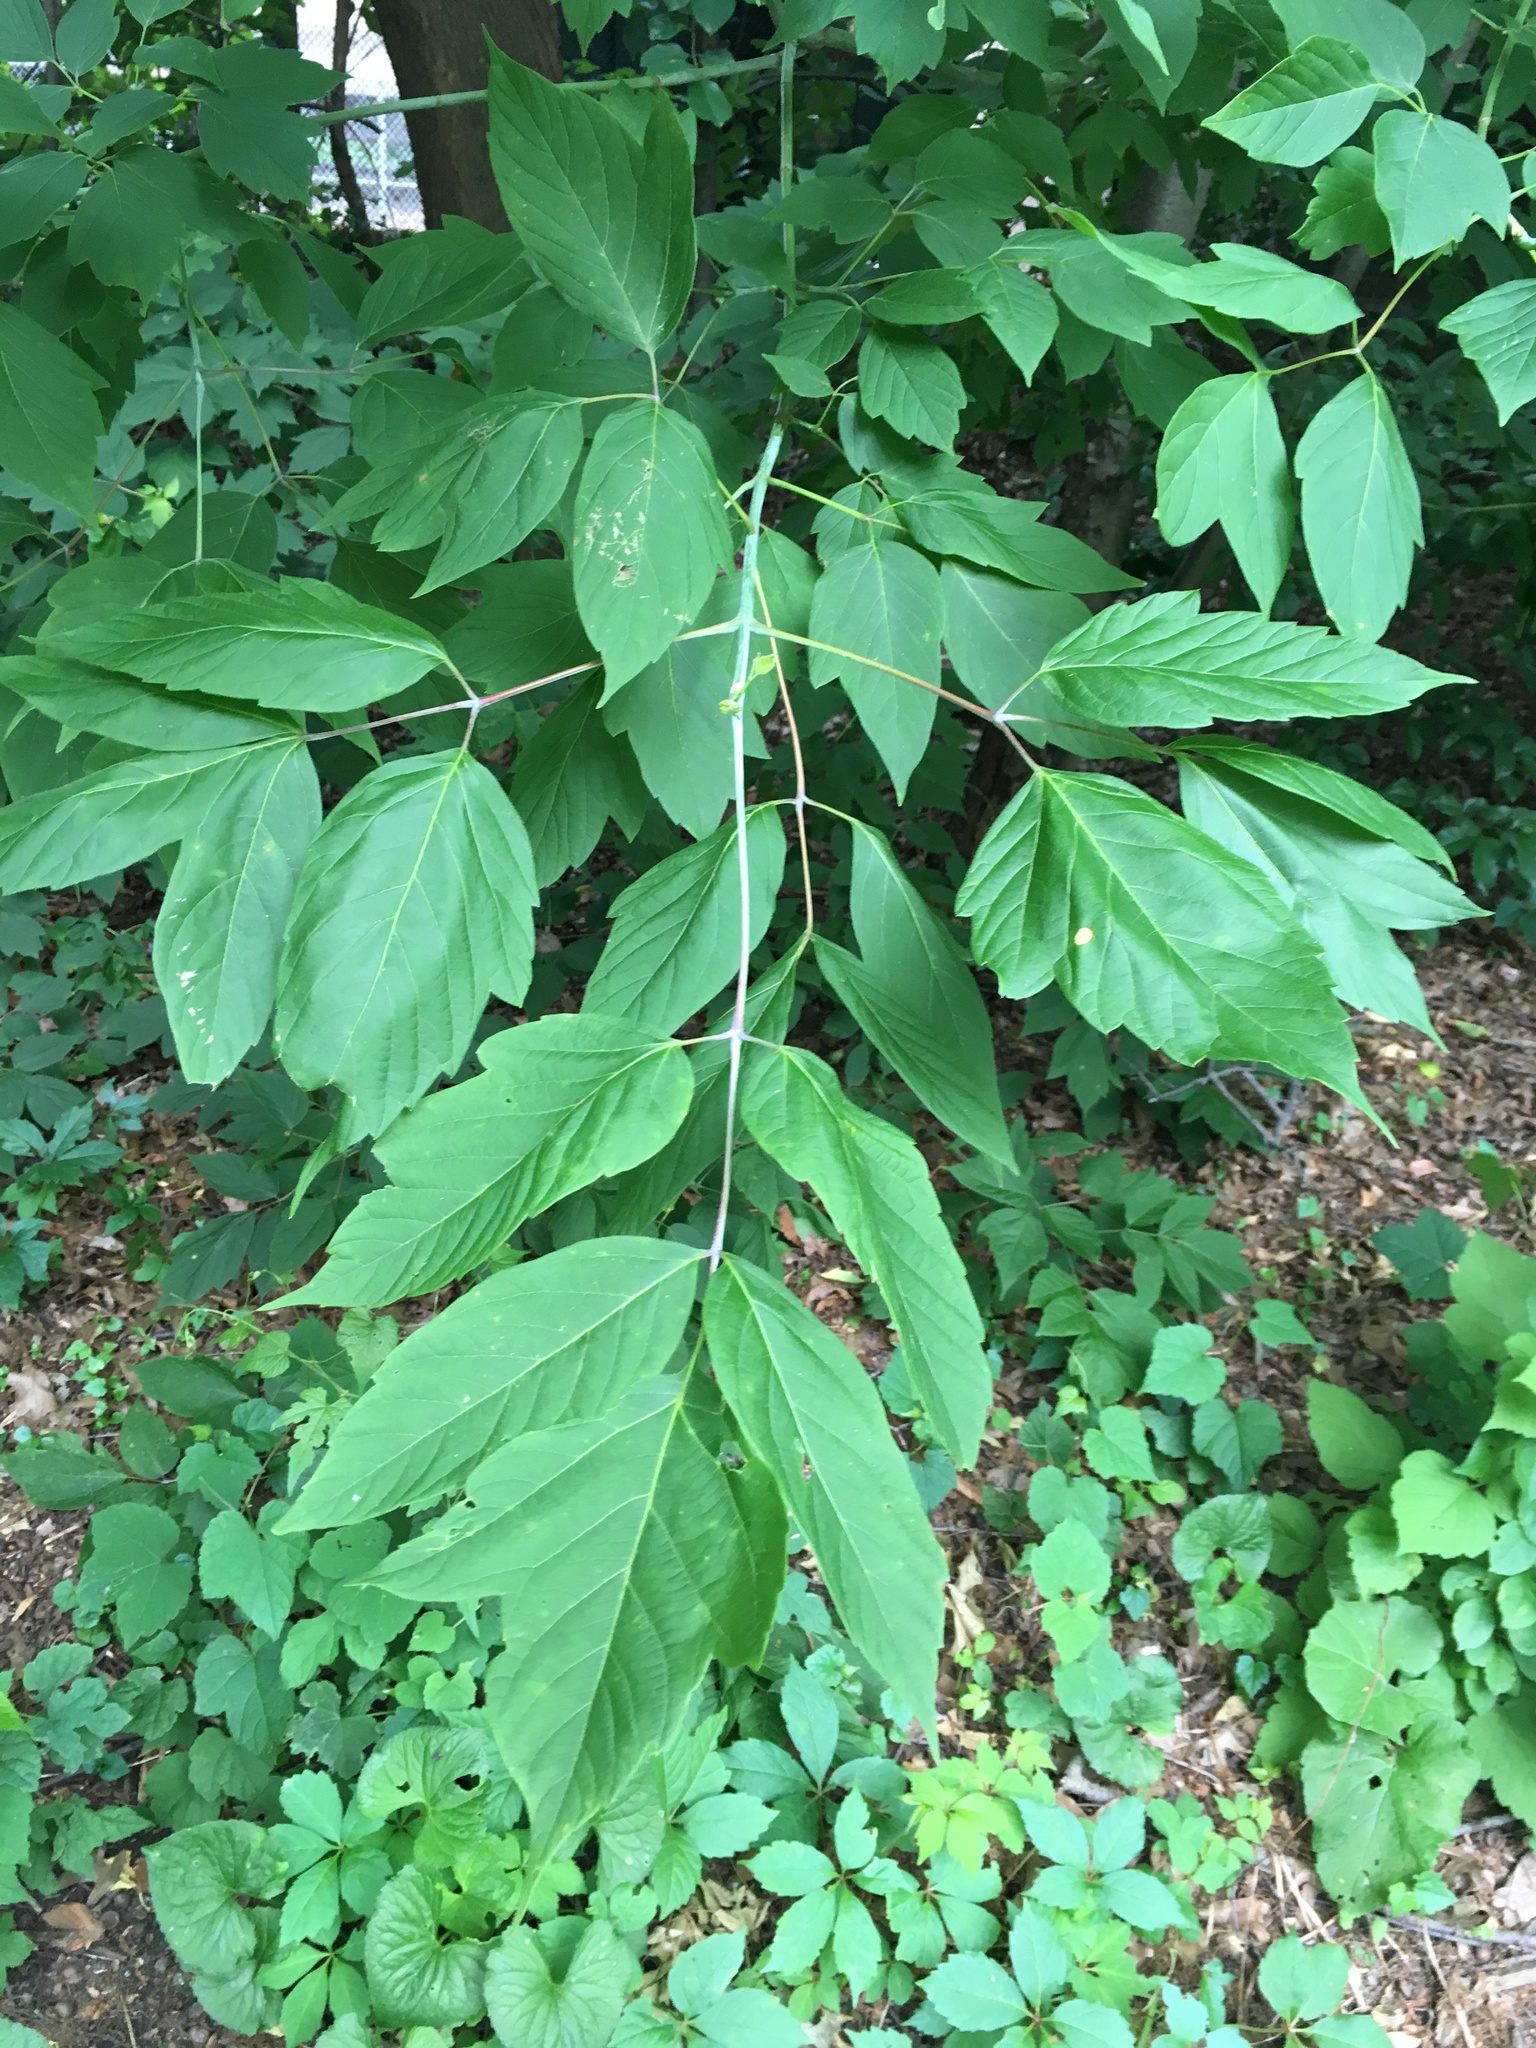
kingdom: Plantae
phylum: Tracheophyta
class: Magnoliopsida
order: Sapindales
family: Sapindaceae
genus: Acer
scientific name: Acer negundo
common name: Ashleaf maple
